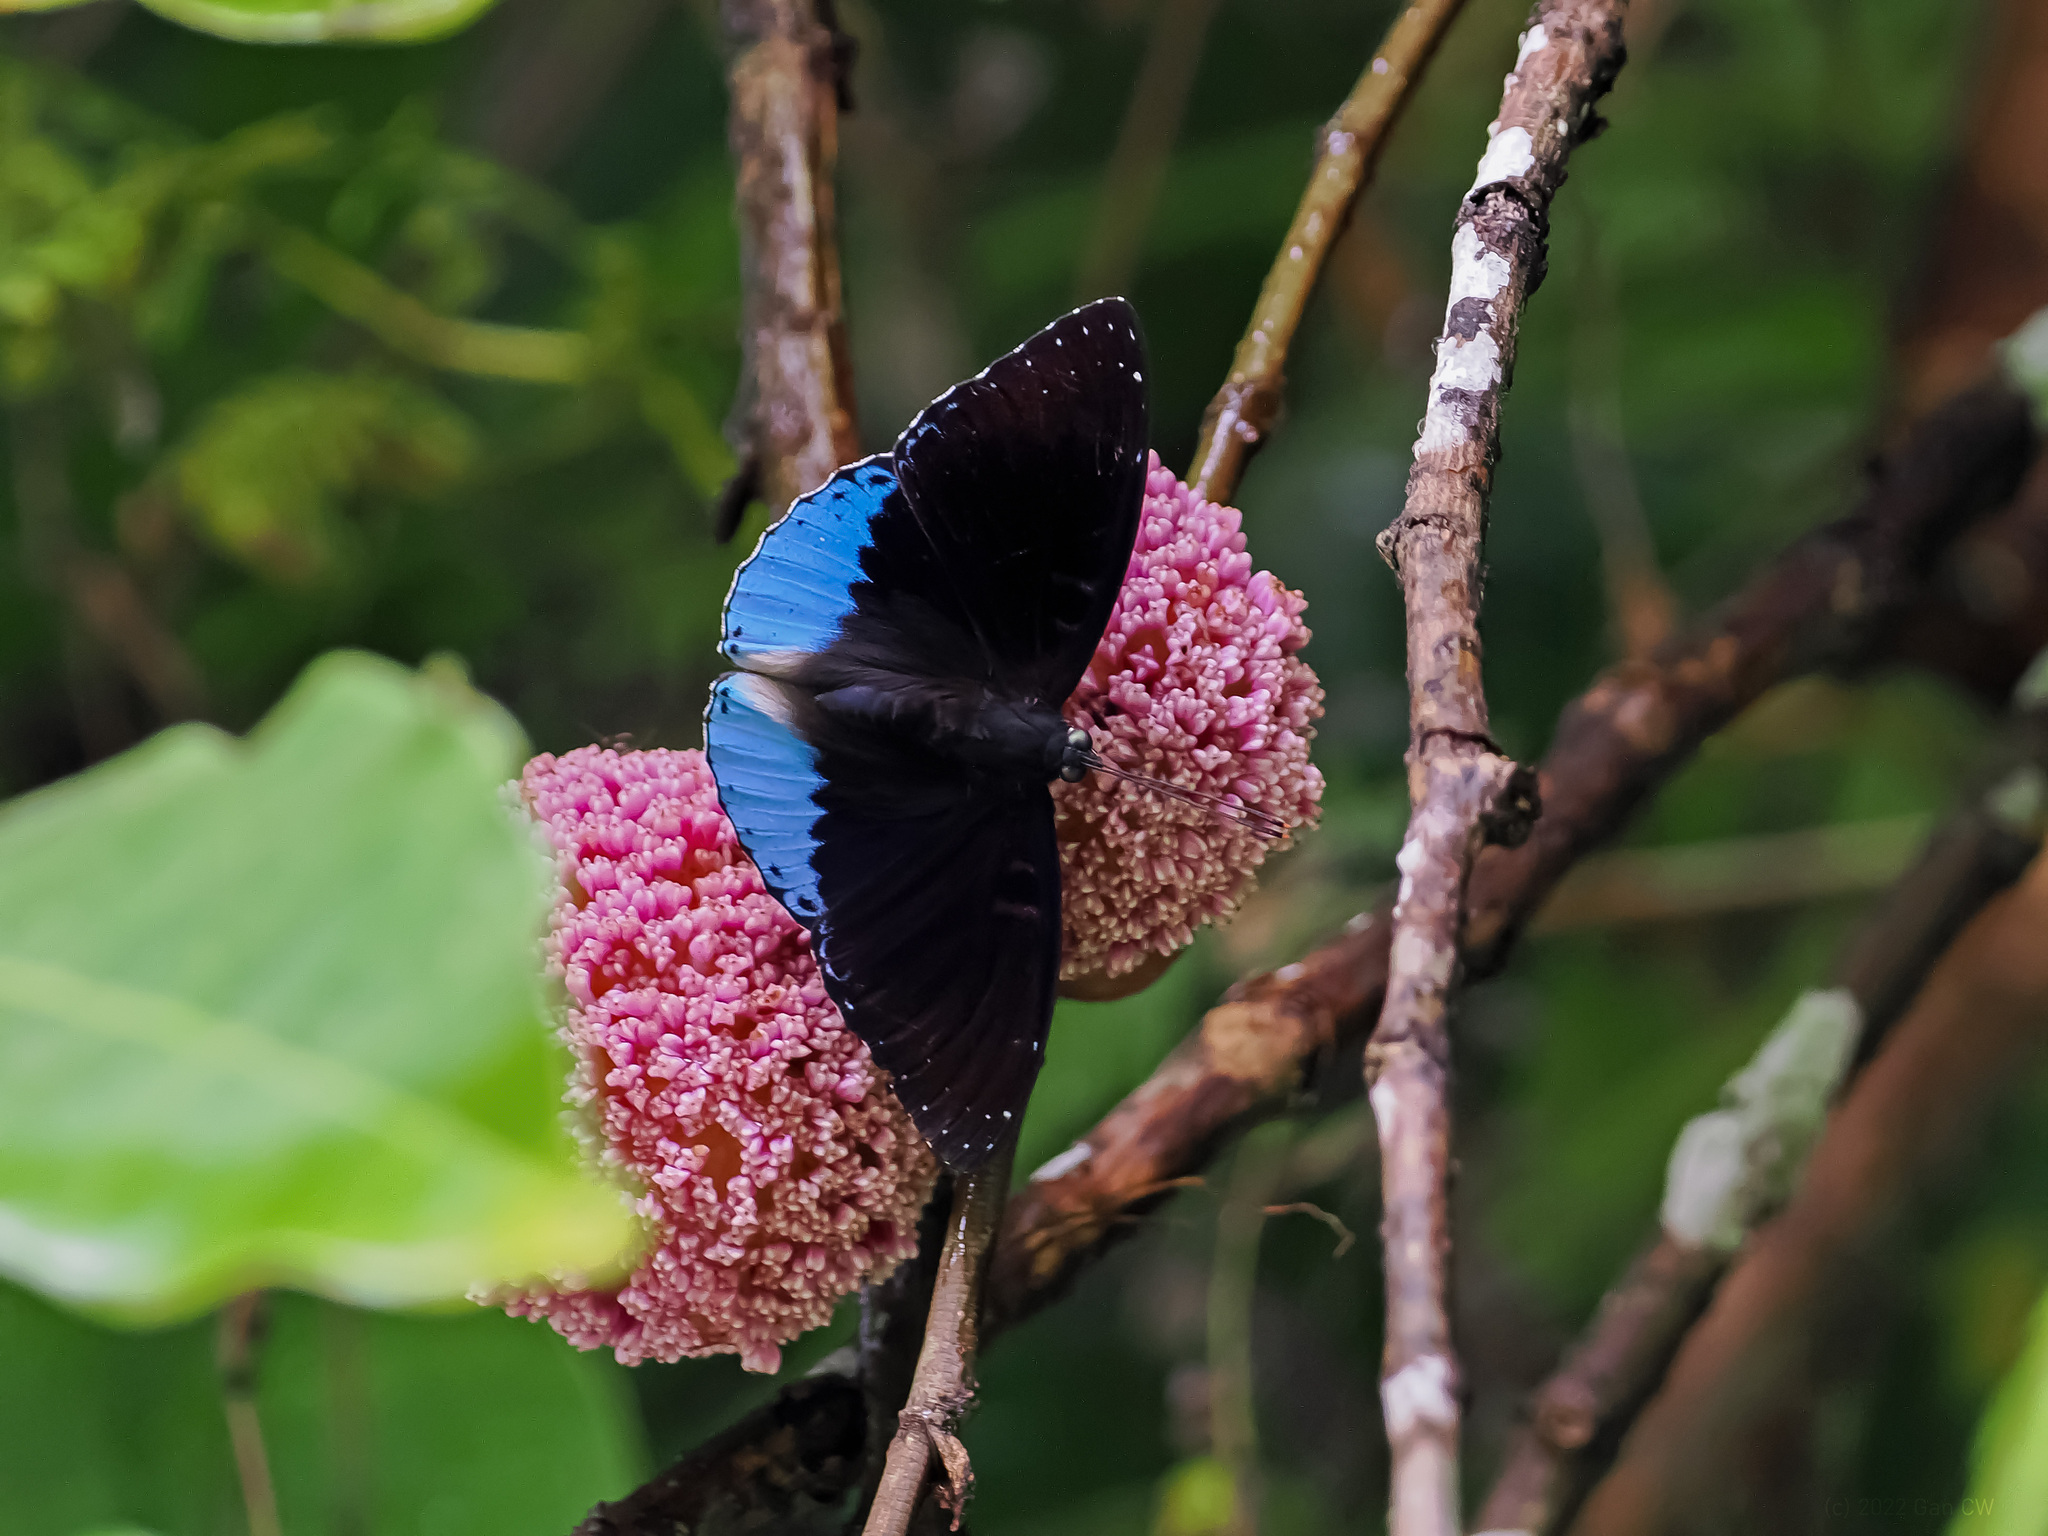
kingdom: Animalia
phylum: Arthropoda
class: Insecta
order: Lepidoptera
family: Nymphalidae
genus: Stibochiona
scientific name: Stibochiona coresia
